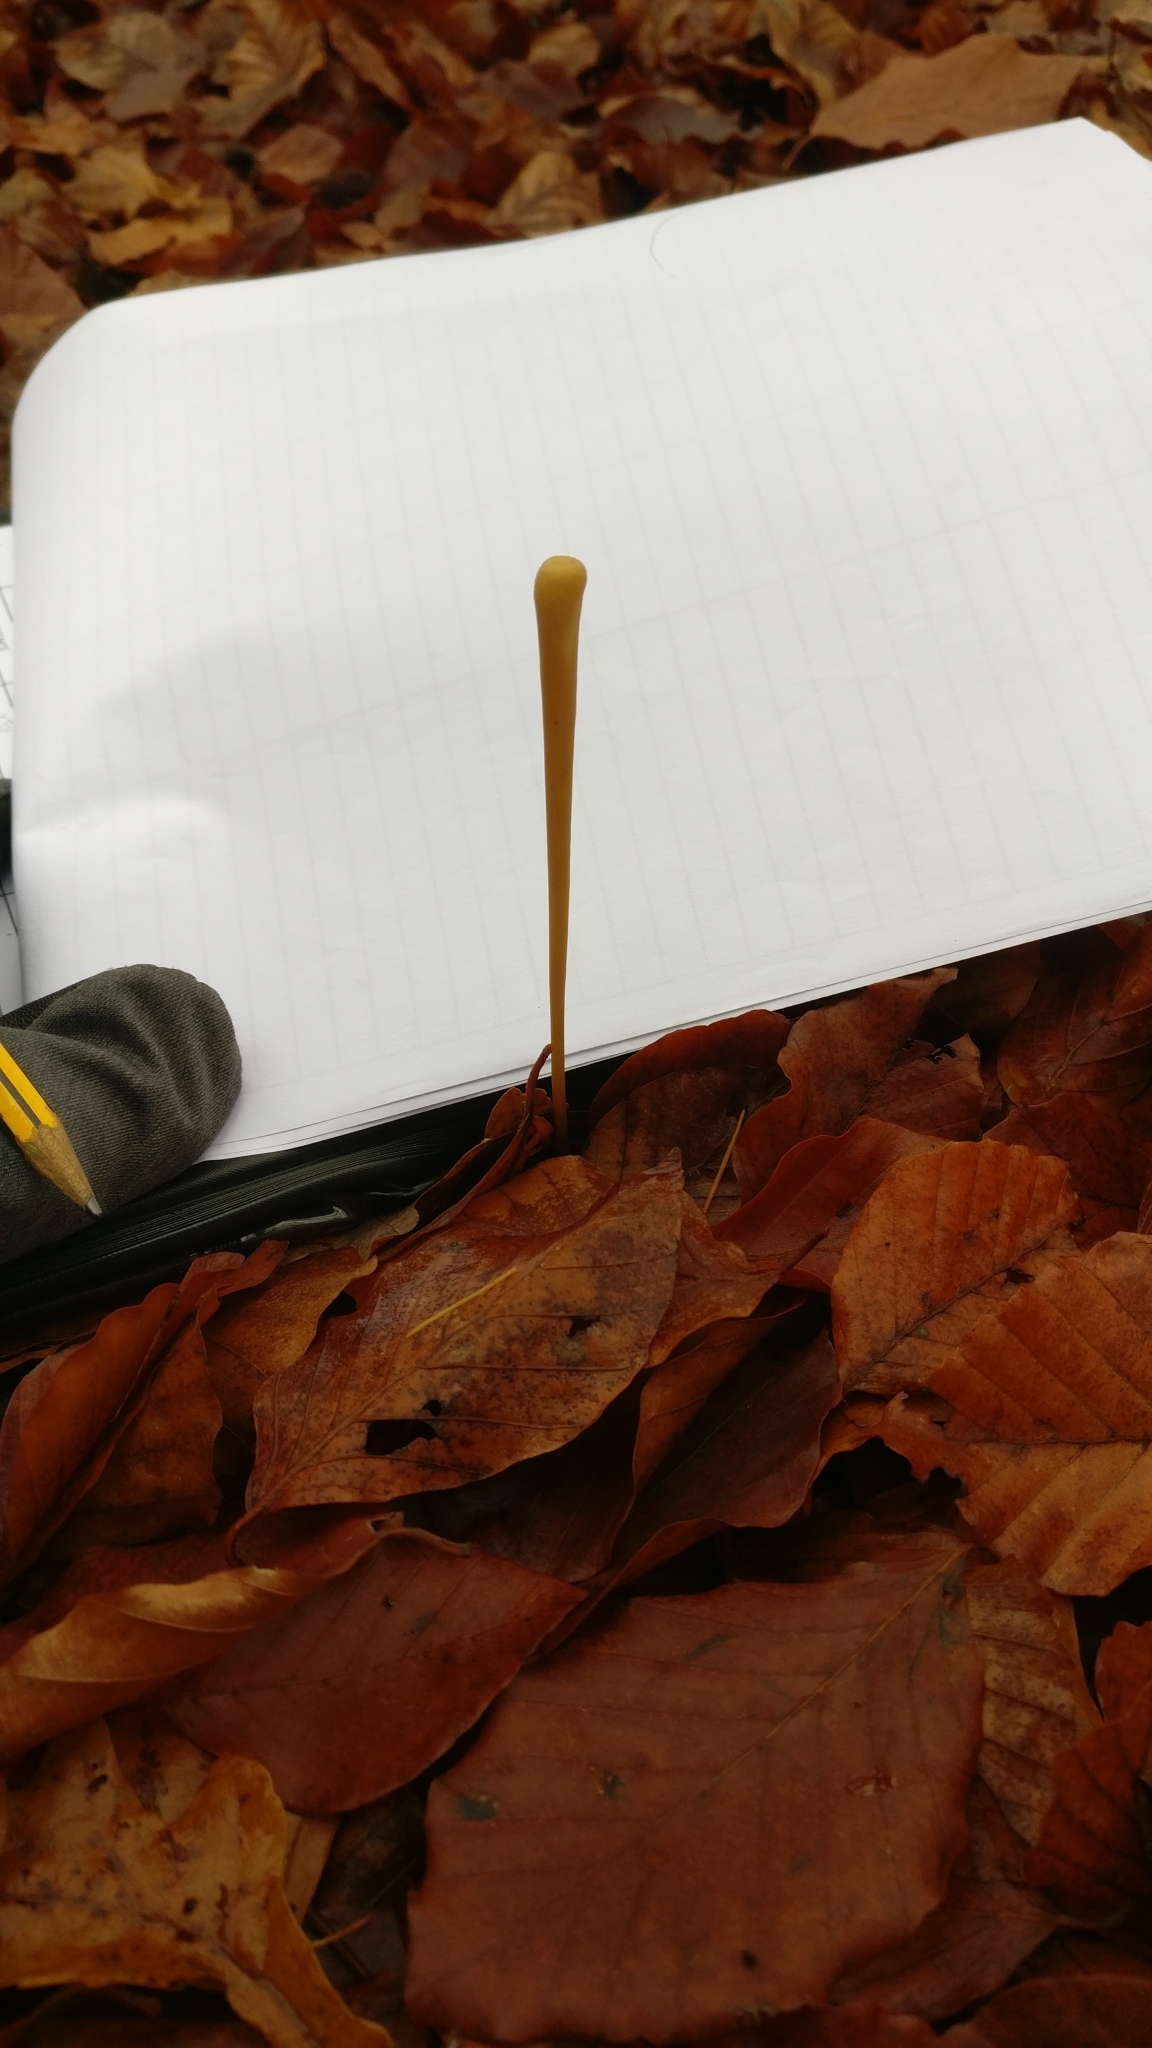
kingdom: Fungi
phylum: Basidiomycota
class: Agaricomycetes
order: Agaricales
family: Typhulaceae
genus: Typhula
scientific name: Typhula fistulosa
